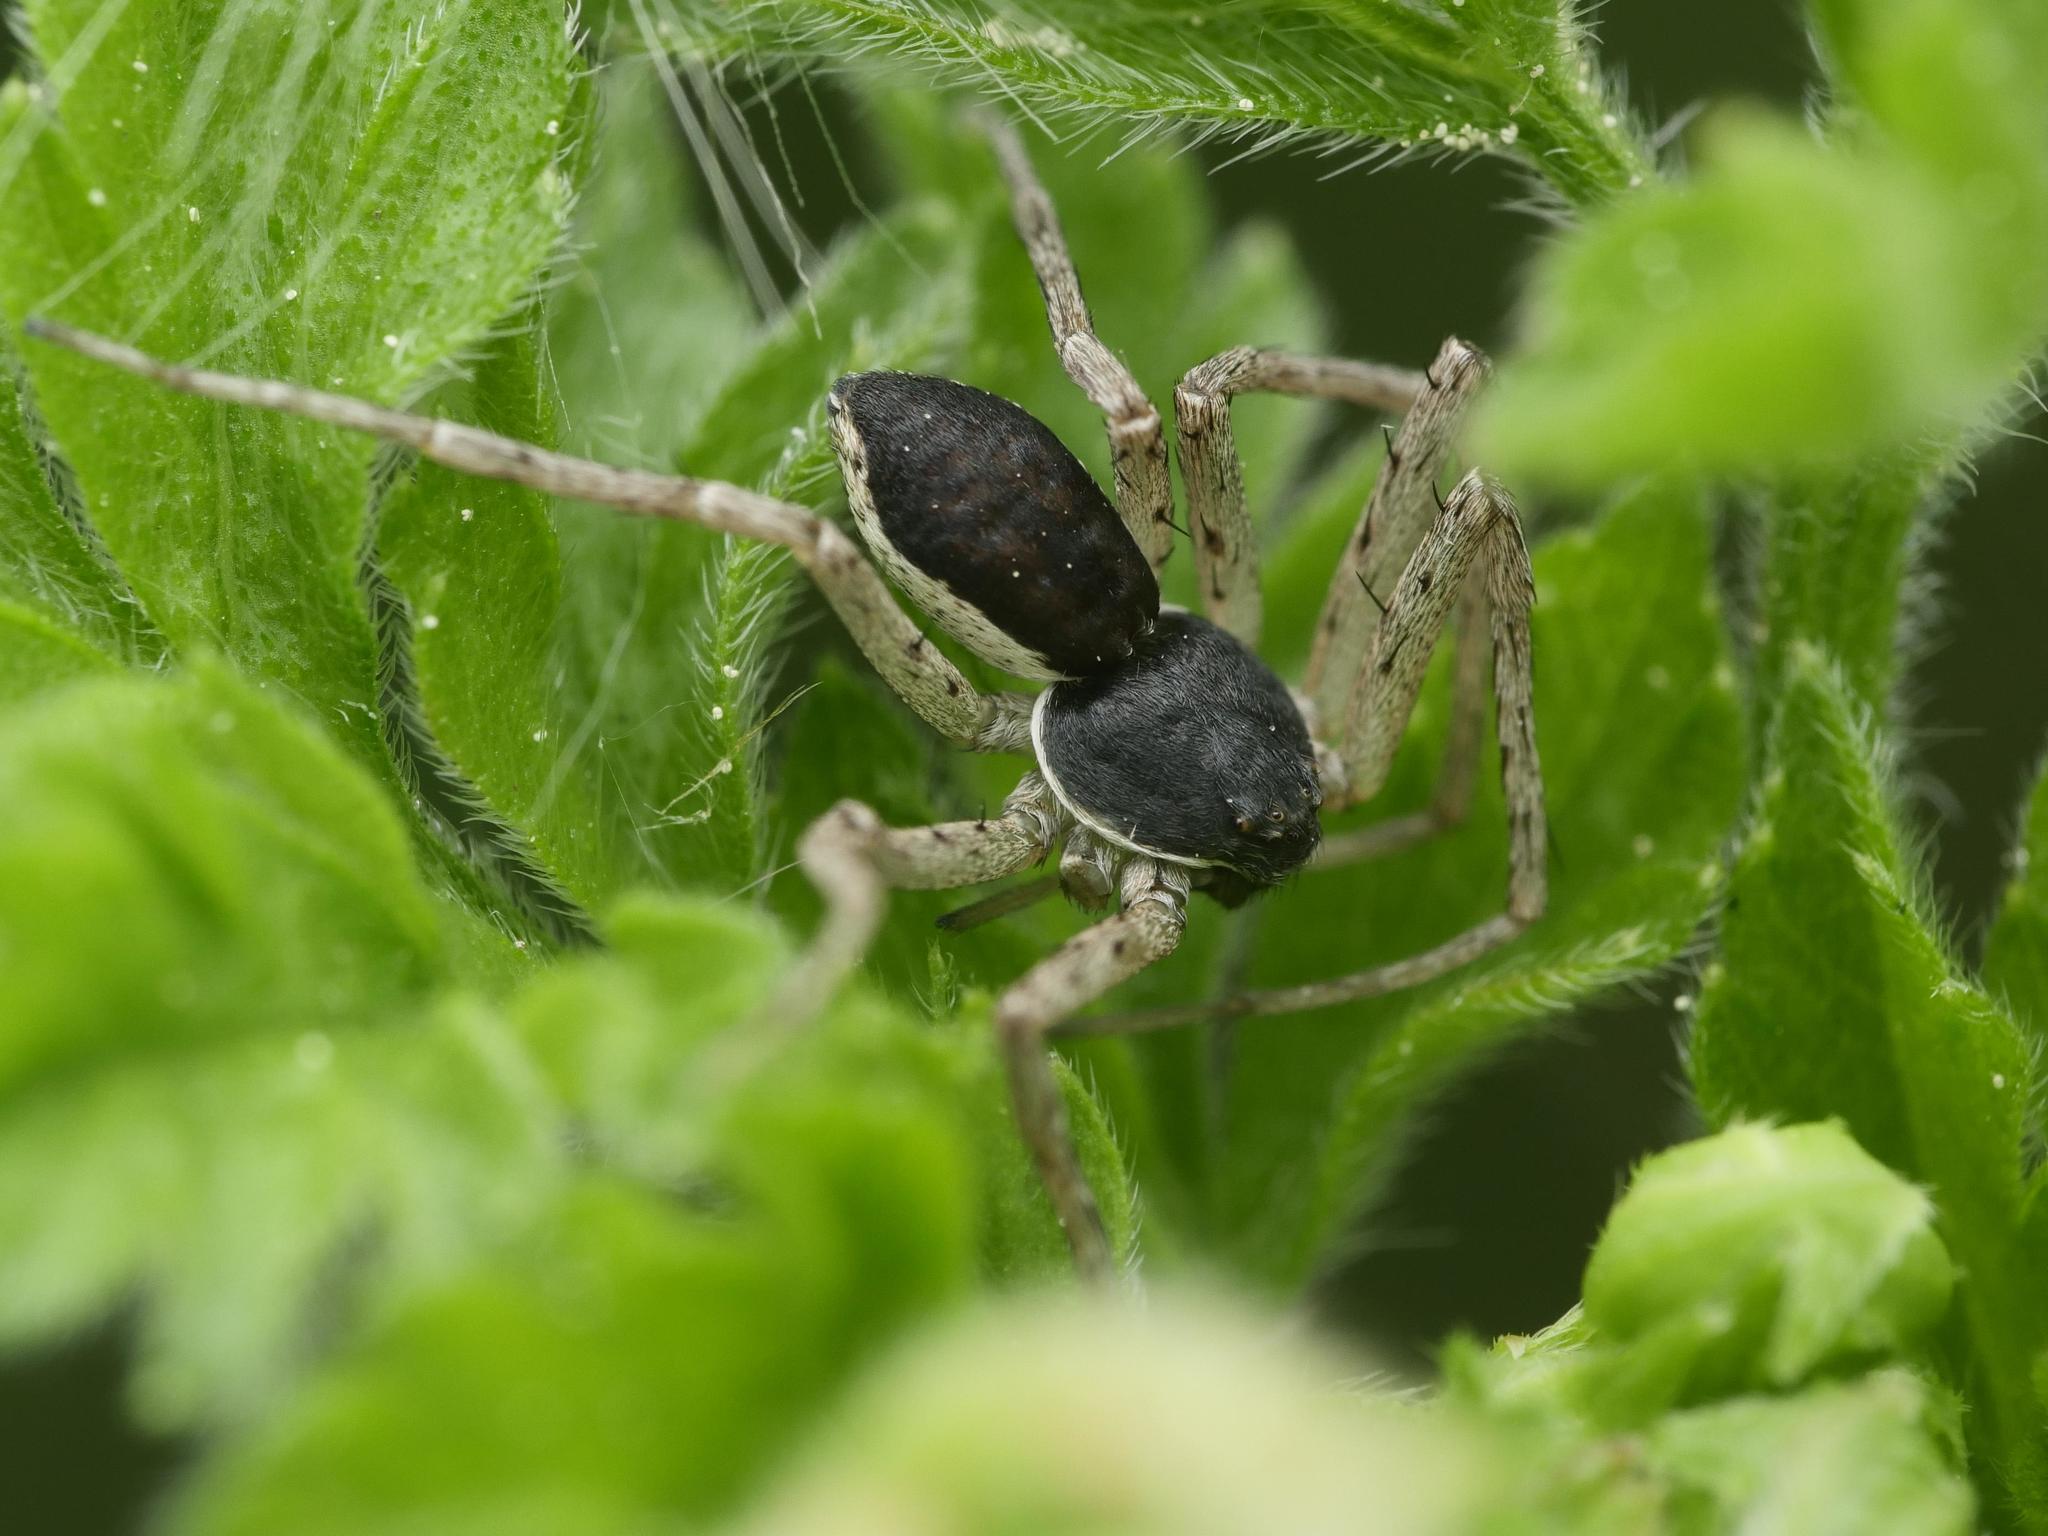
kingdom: Animalia
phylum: Arthropoda
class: Arachnida
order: Araneae
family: Philodromidae
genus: Philodromus
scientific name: Philodromus dispar
